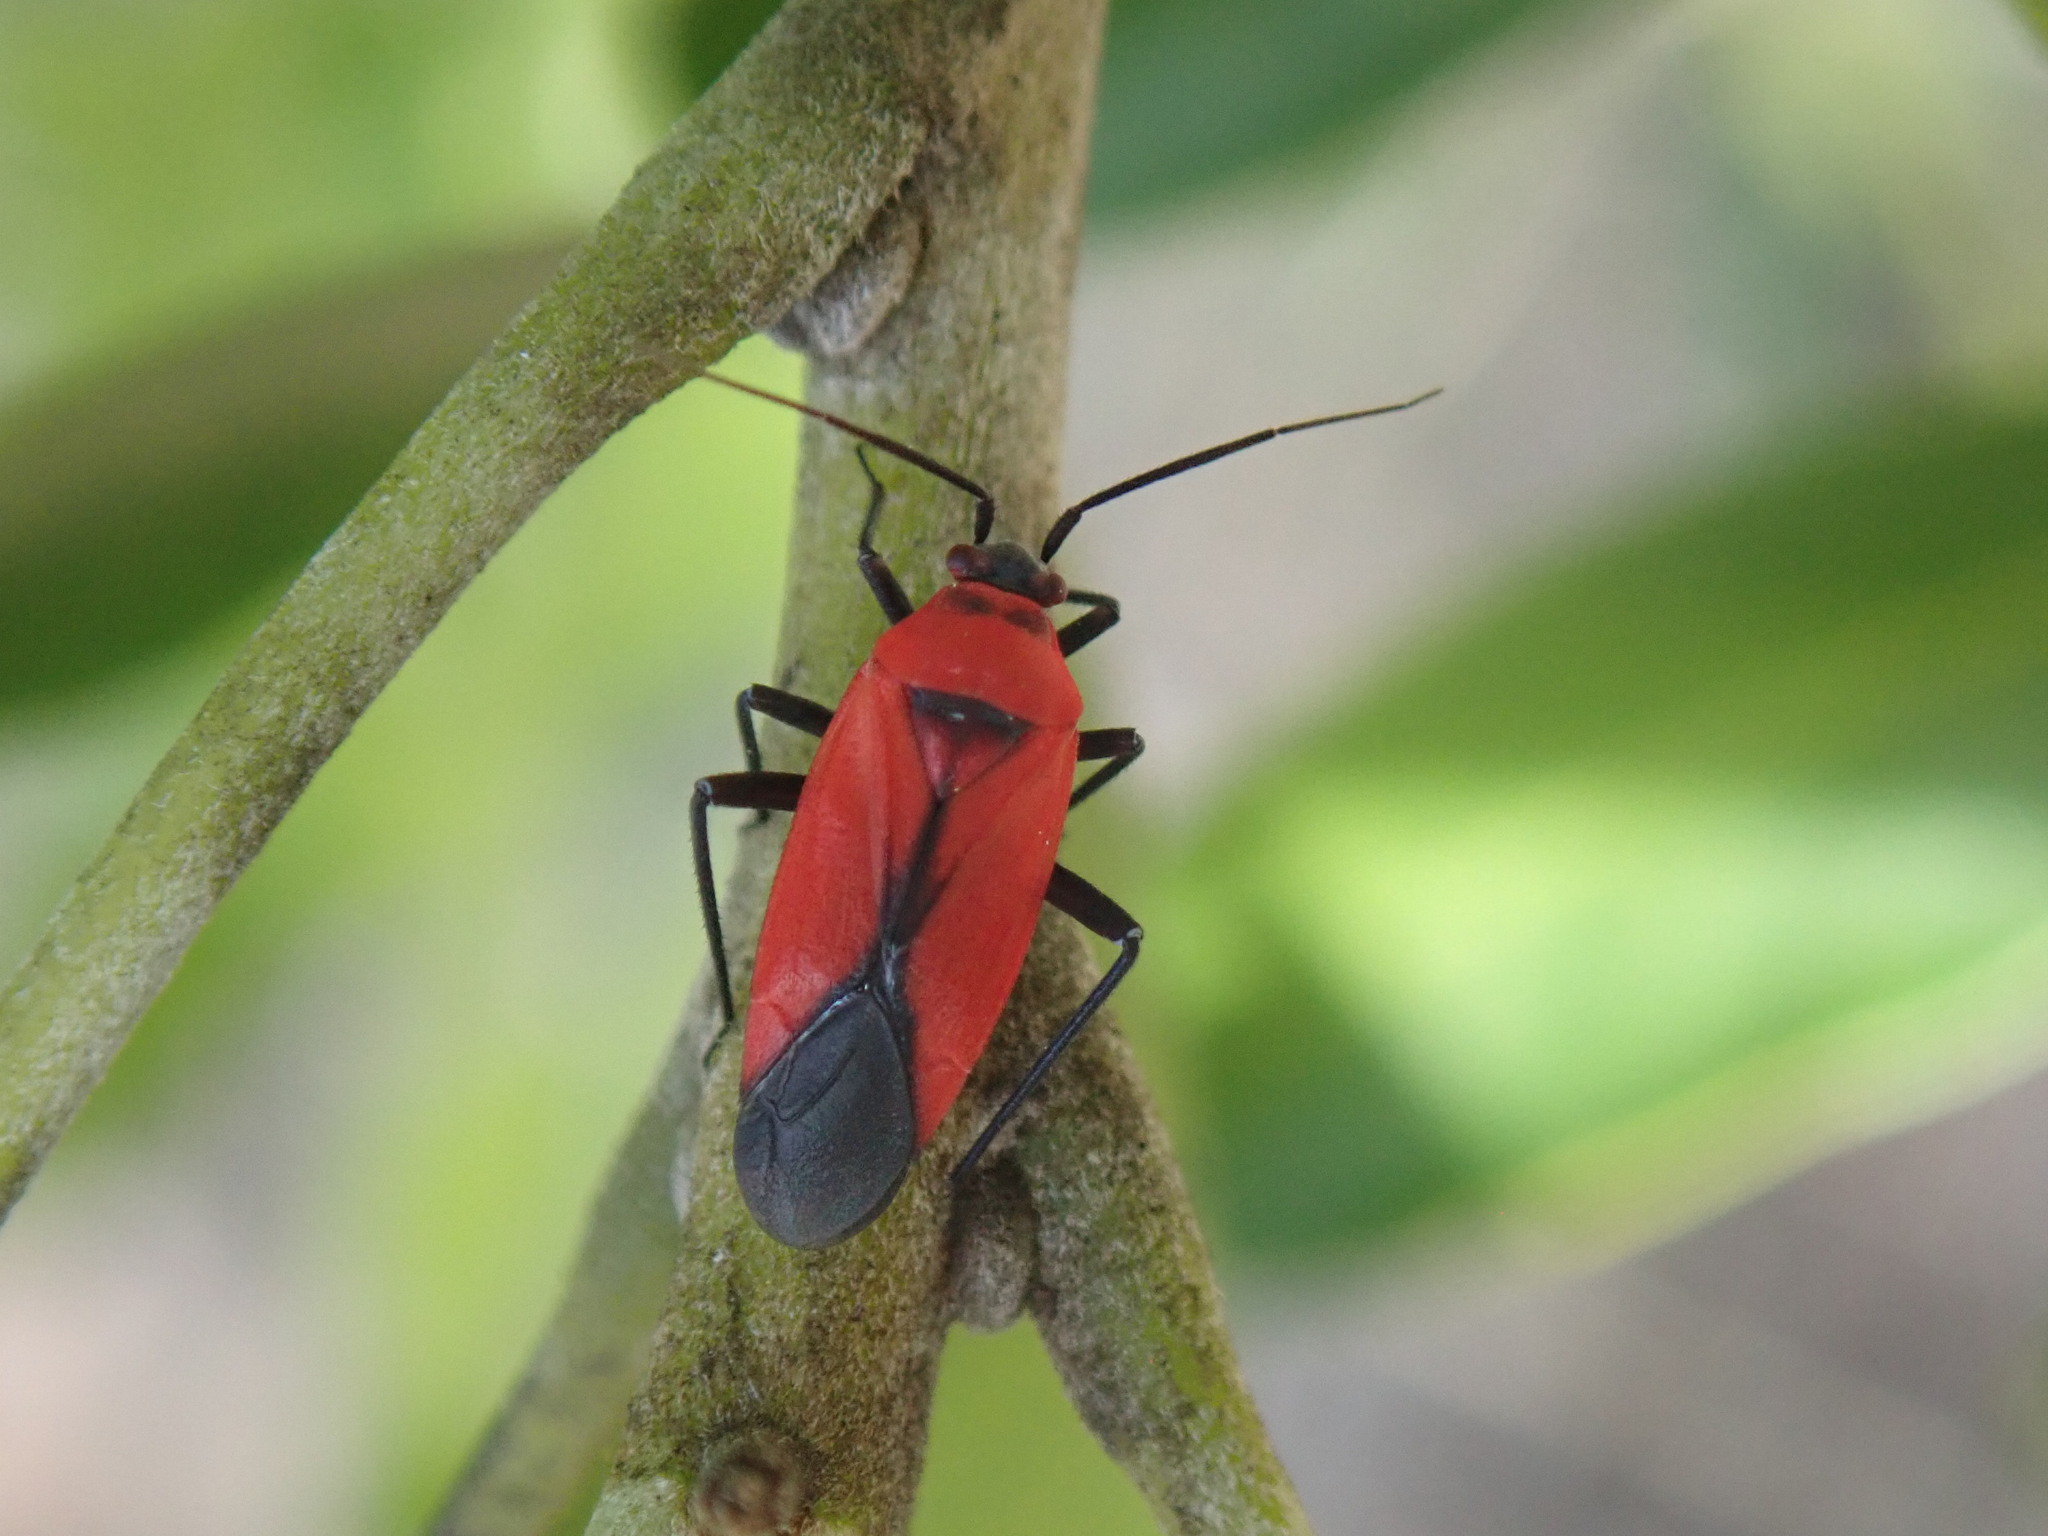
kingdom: Animalia
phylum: Arthropoda
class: Insecta
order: Hemiptera
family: Miridae
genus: Lopidea
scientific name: Lopidea major
